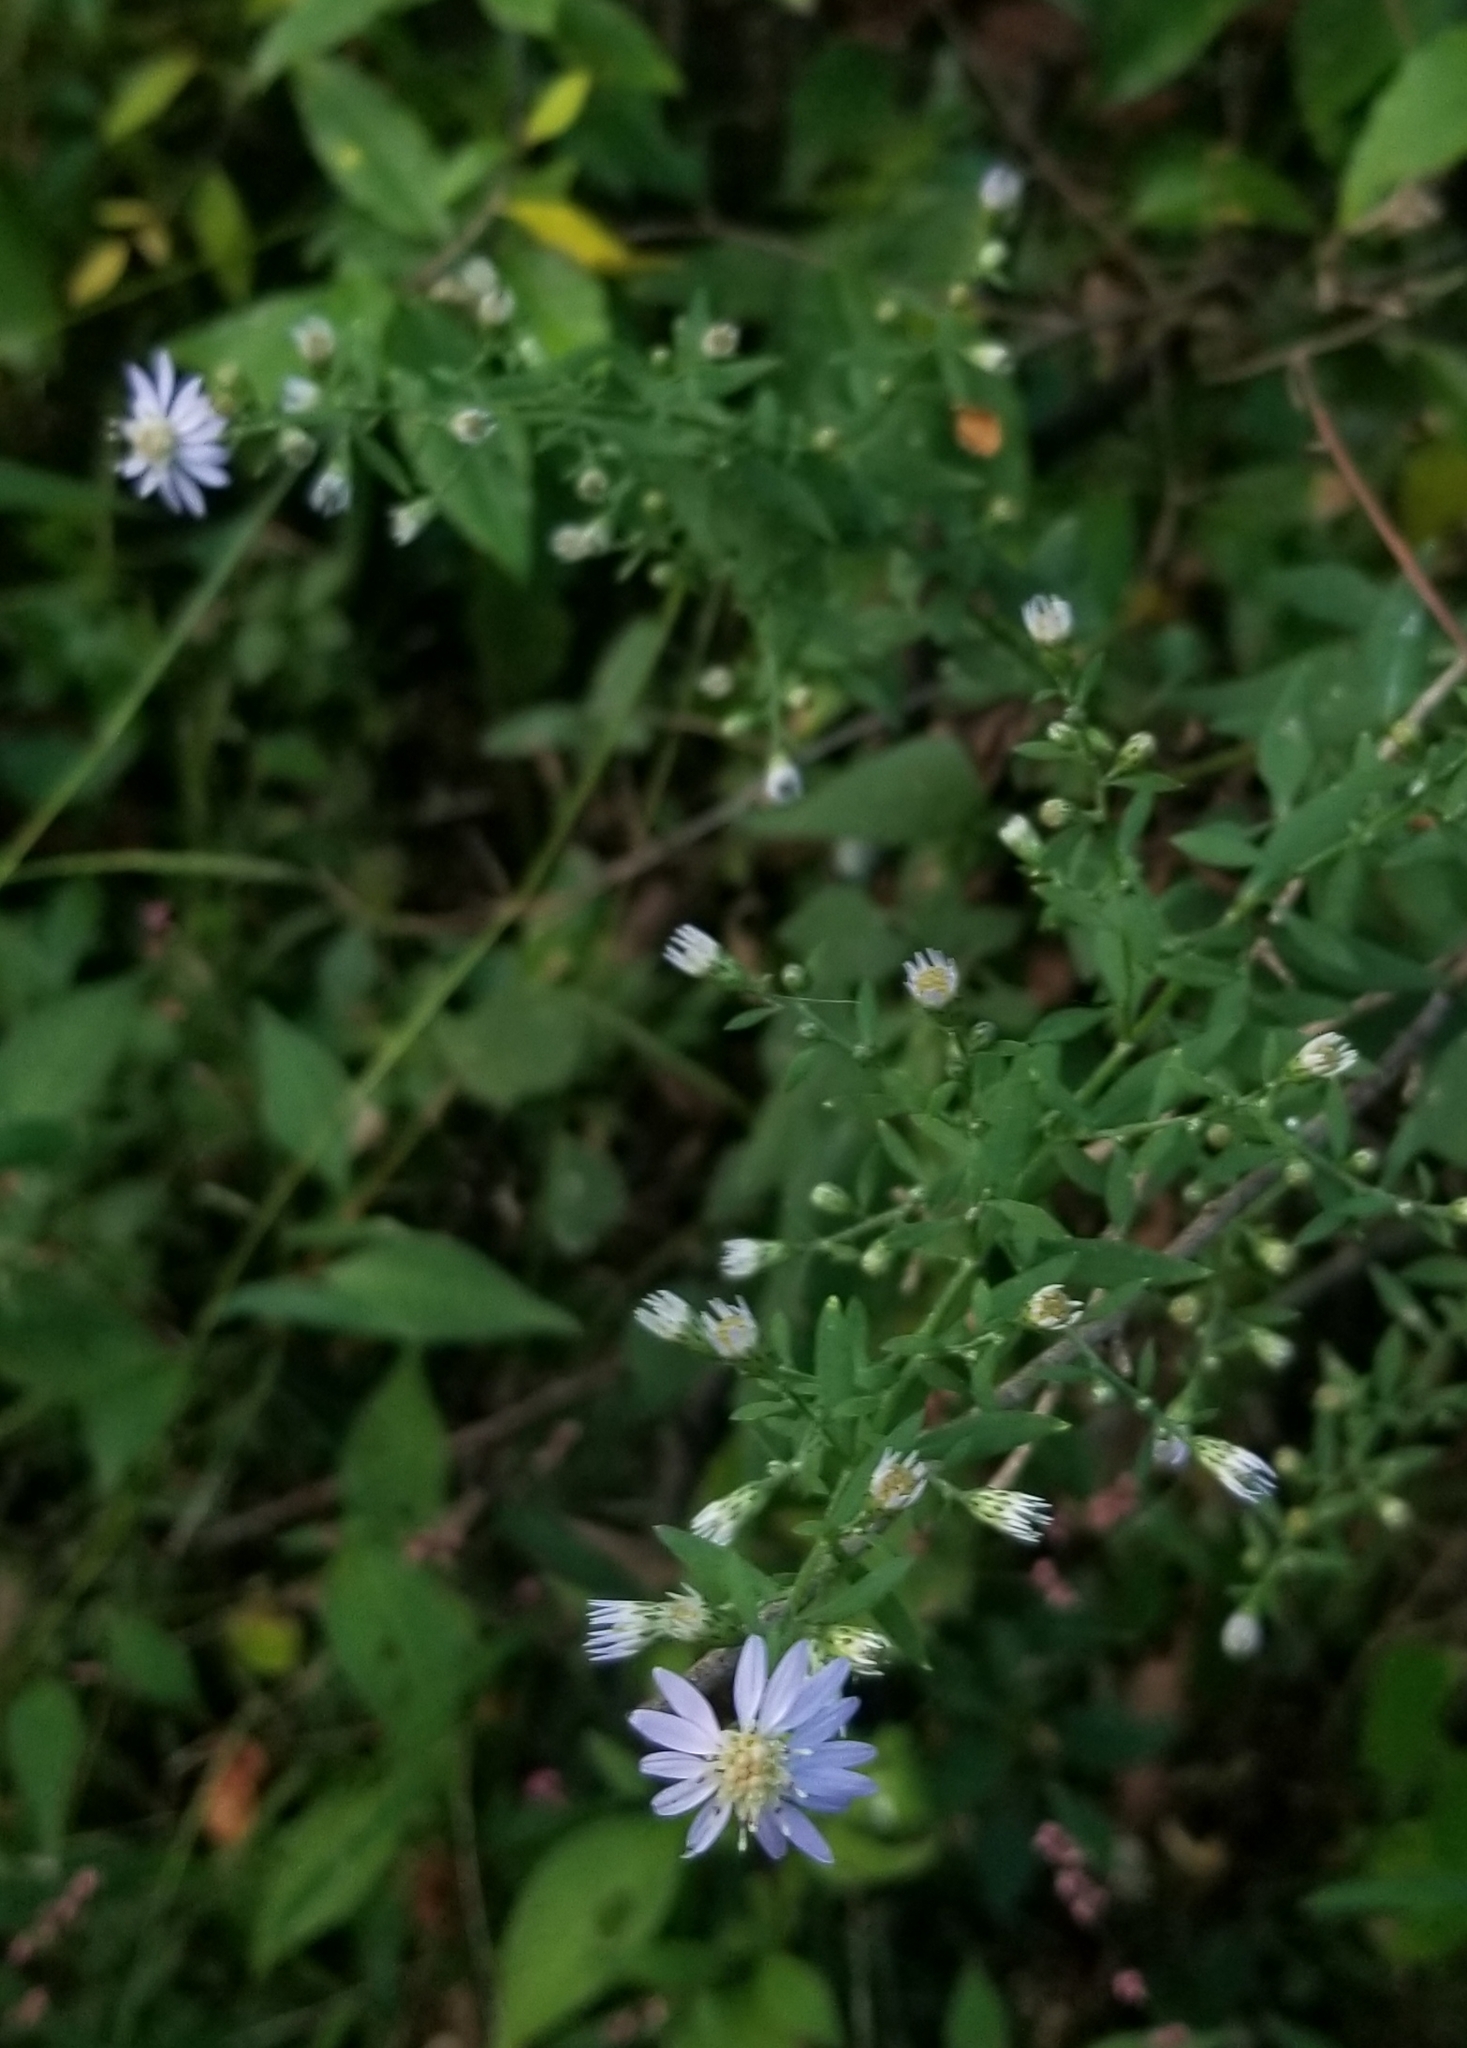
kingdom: Plantae
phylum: Tracheophyta
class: Magnoliopsida
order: Asterales
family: Asteraceae
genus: Symphyotrichum
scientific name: Symphyotrichum cordifolium
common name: Beeweed
